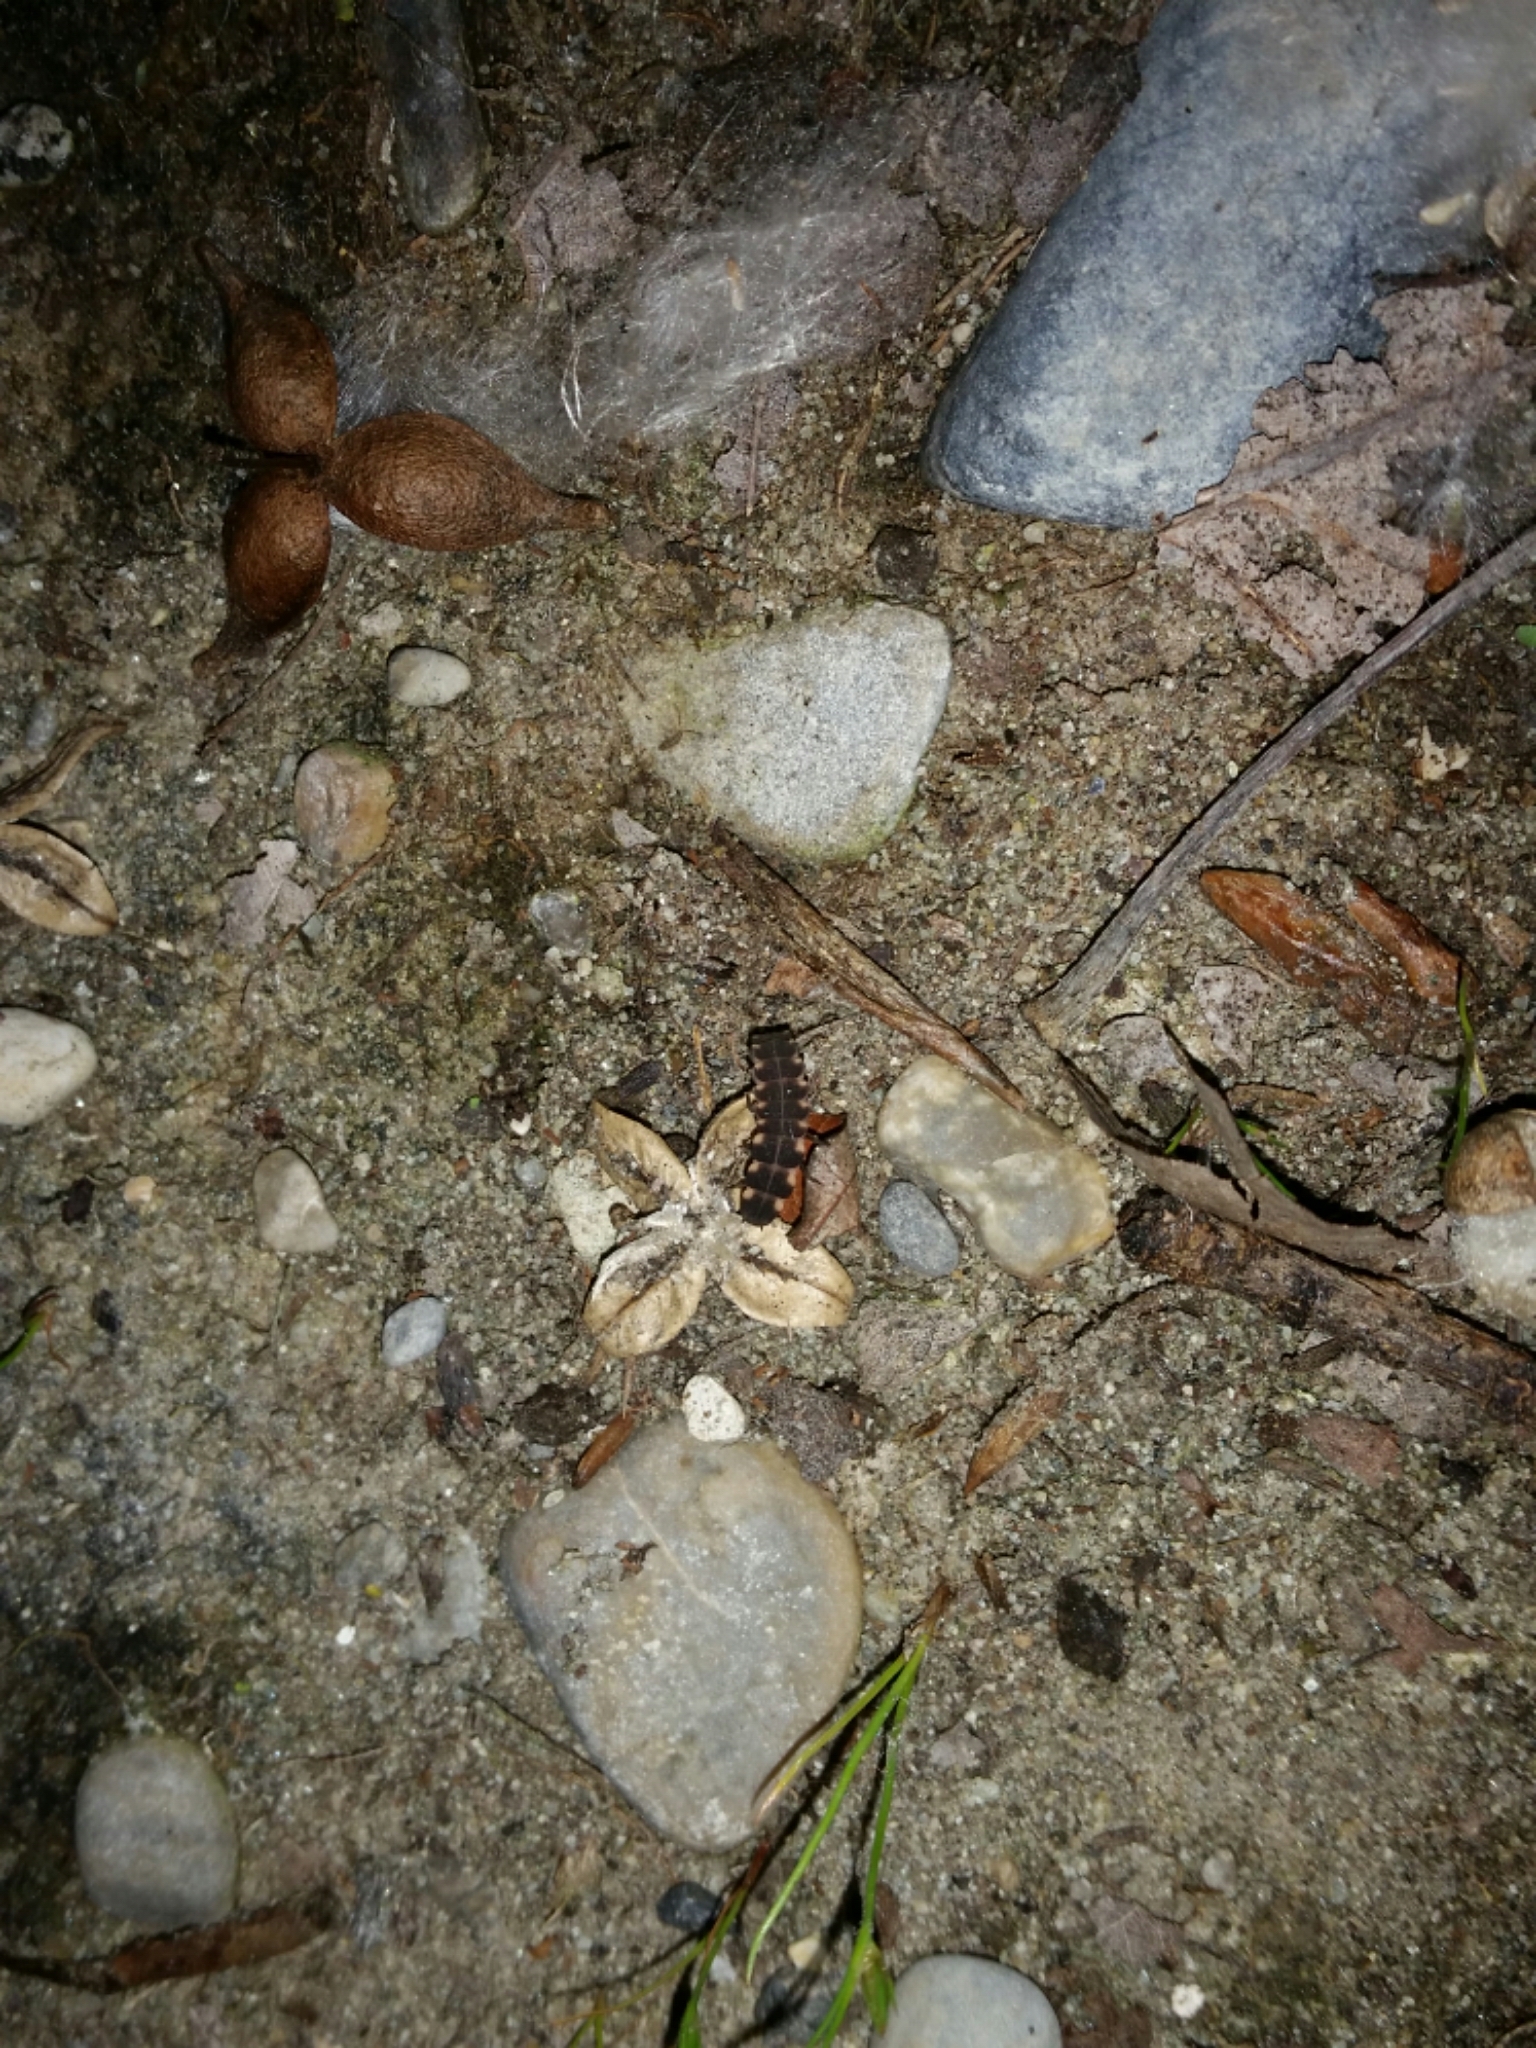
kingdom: Animalia
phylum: Arthropoda
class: Insecta
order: Coleoptera
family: Lampyridae
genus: Lampyris
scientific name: Lampyris noctiluca
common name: Glow-worm
